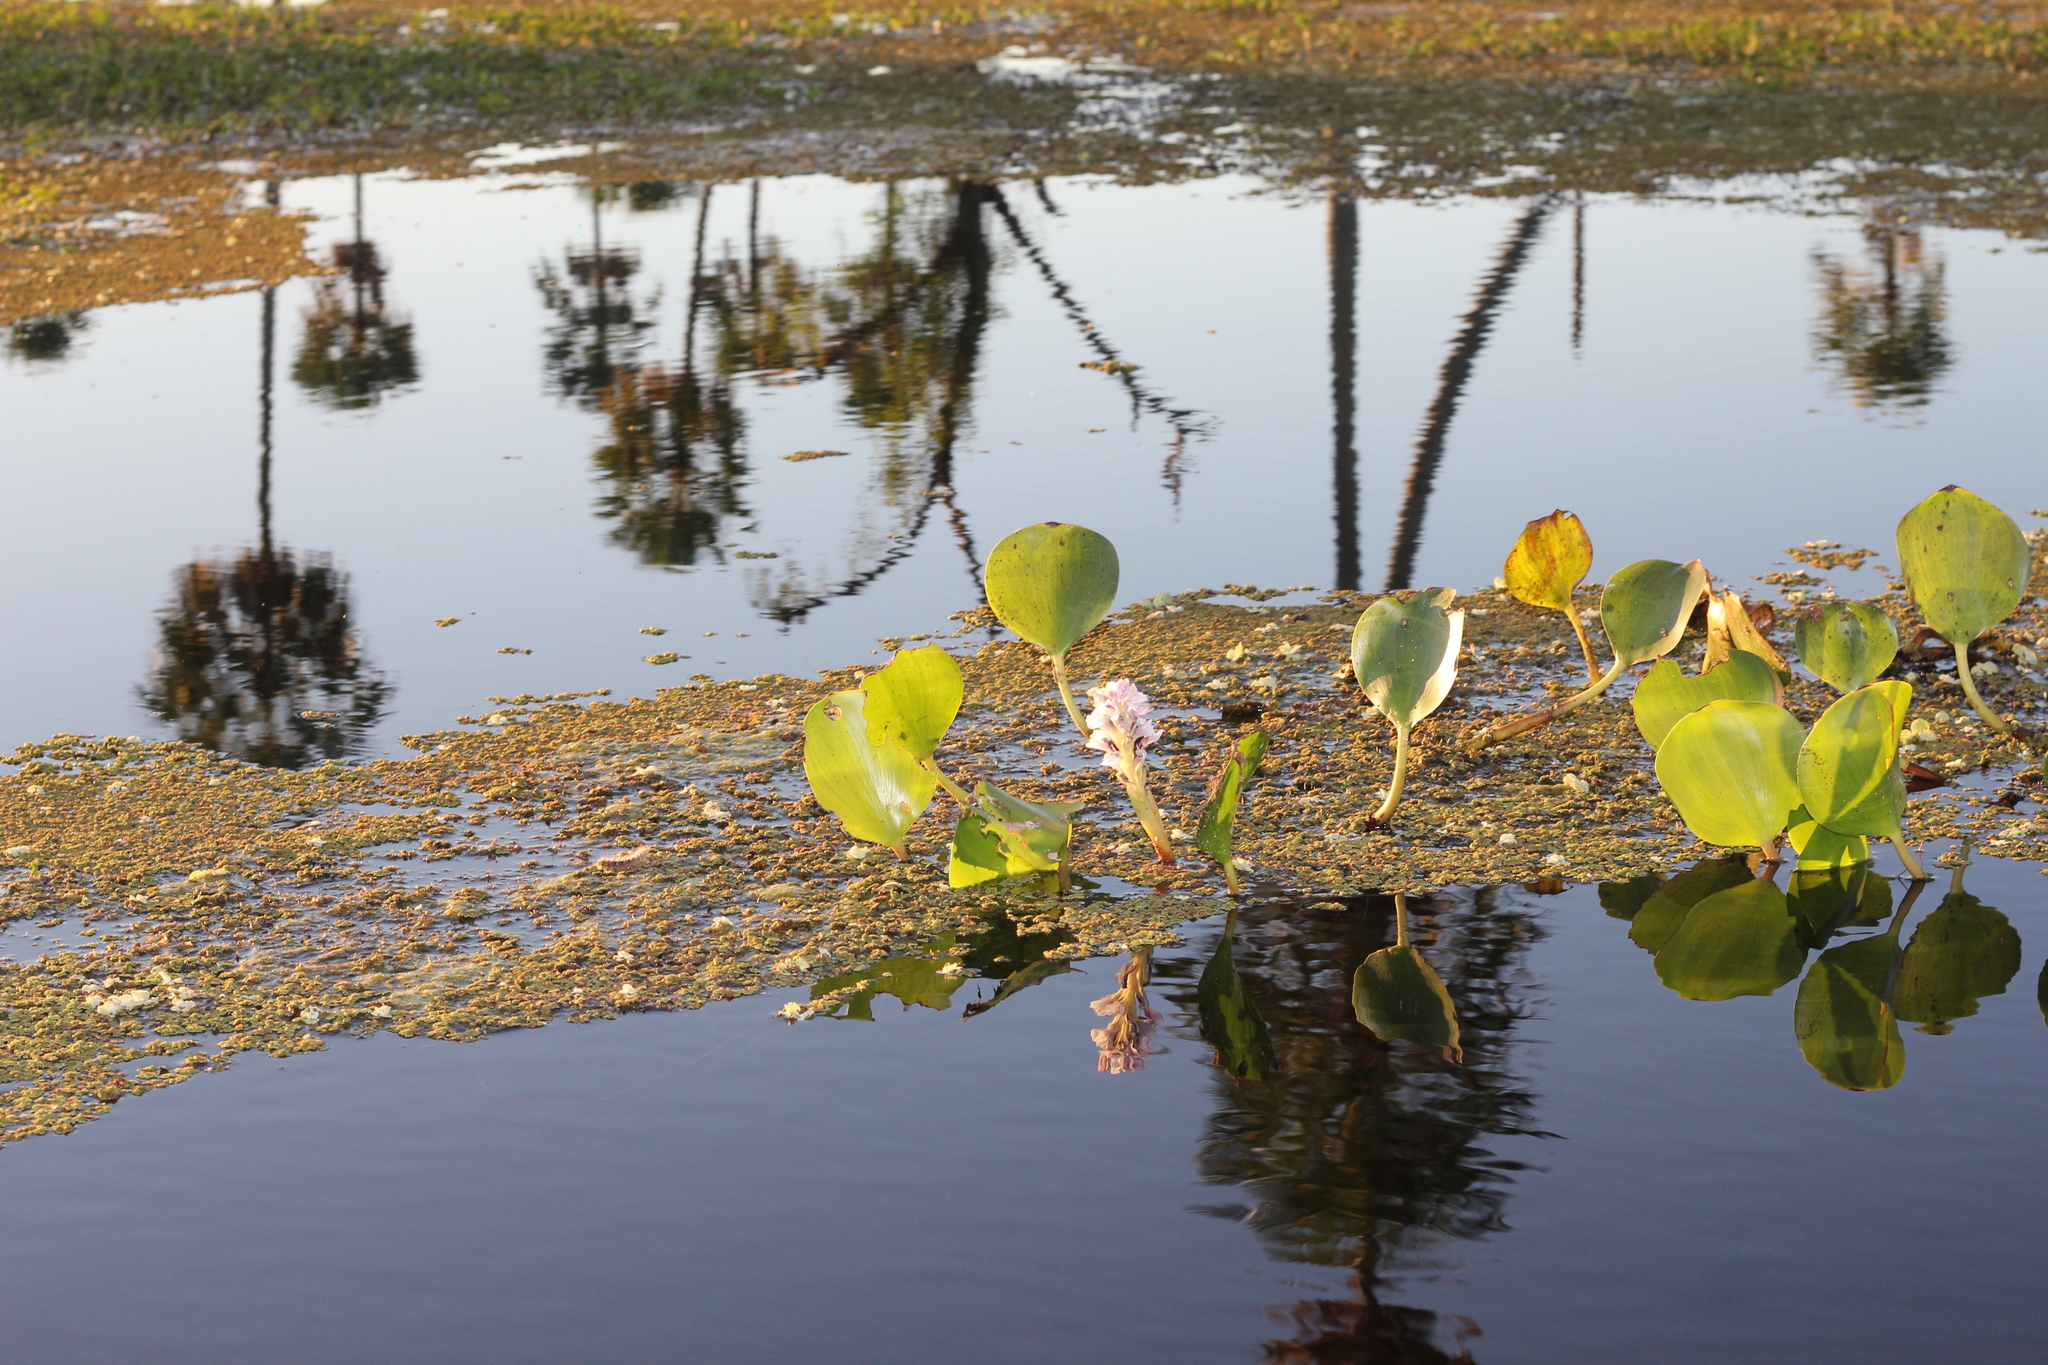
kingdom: Plantae
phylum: Tracheophyta
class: Liliopsida
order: Commelinales
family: Pontederiaceae
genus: Pontederia
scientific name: Pontederia rotundifolia
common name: Tropical pickerel-weed
